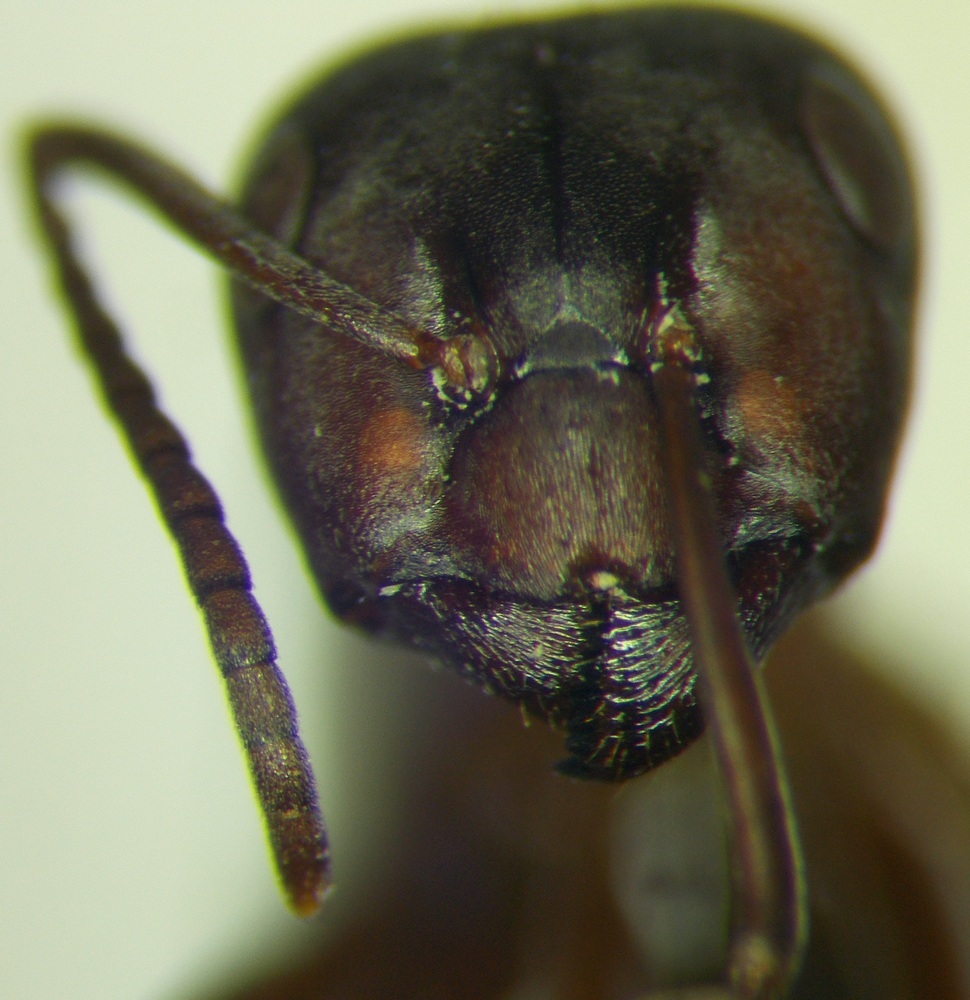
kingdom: Animalia
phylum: Arthropoda
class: Insecta
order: Hymenoptera
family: Formicidae
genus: Formica
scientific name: Formica sanguinea
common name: Blood-red ant
